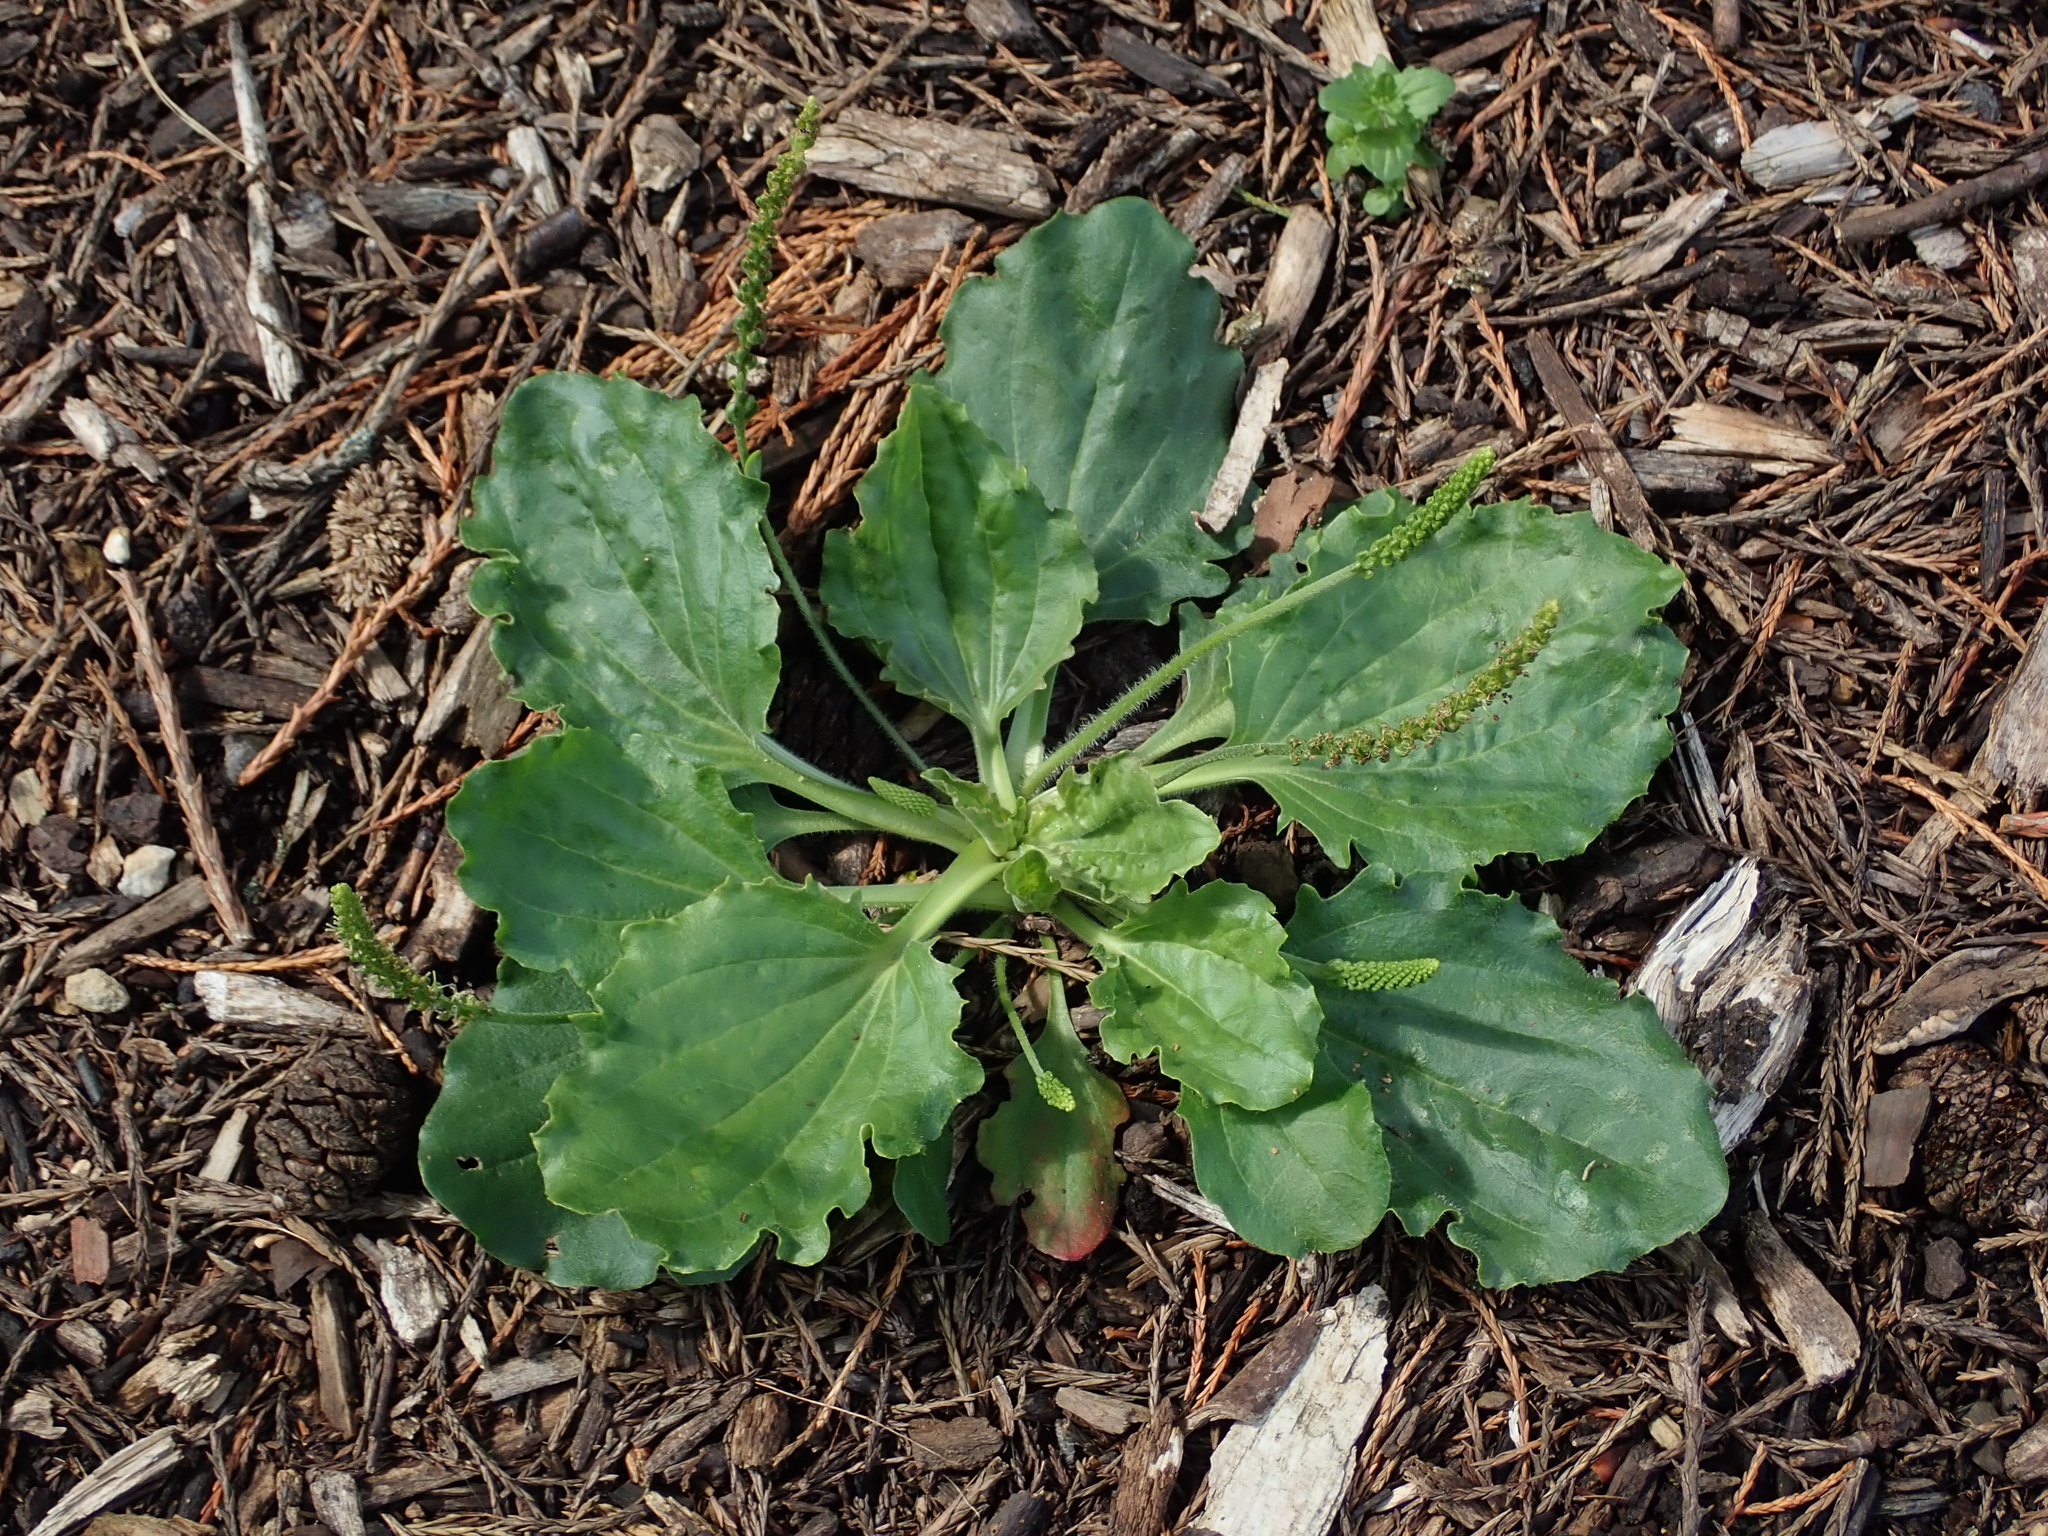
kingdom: Plantae
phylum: Tracheophyta
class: Magnoliopsida
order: Lamiales
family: Plantaginaceae
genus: Plantago
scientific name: Plantago major
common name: Common plantain
